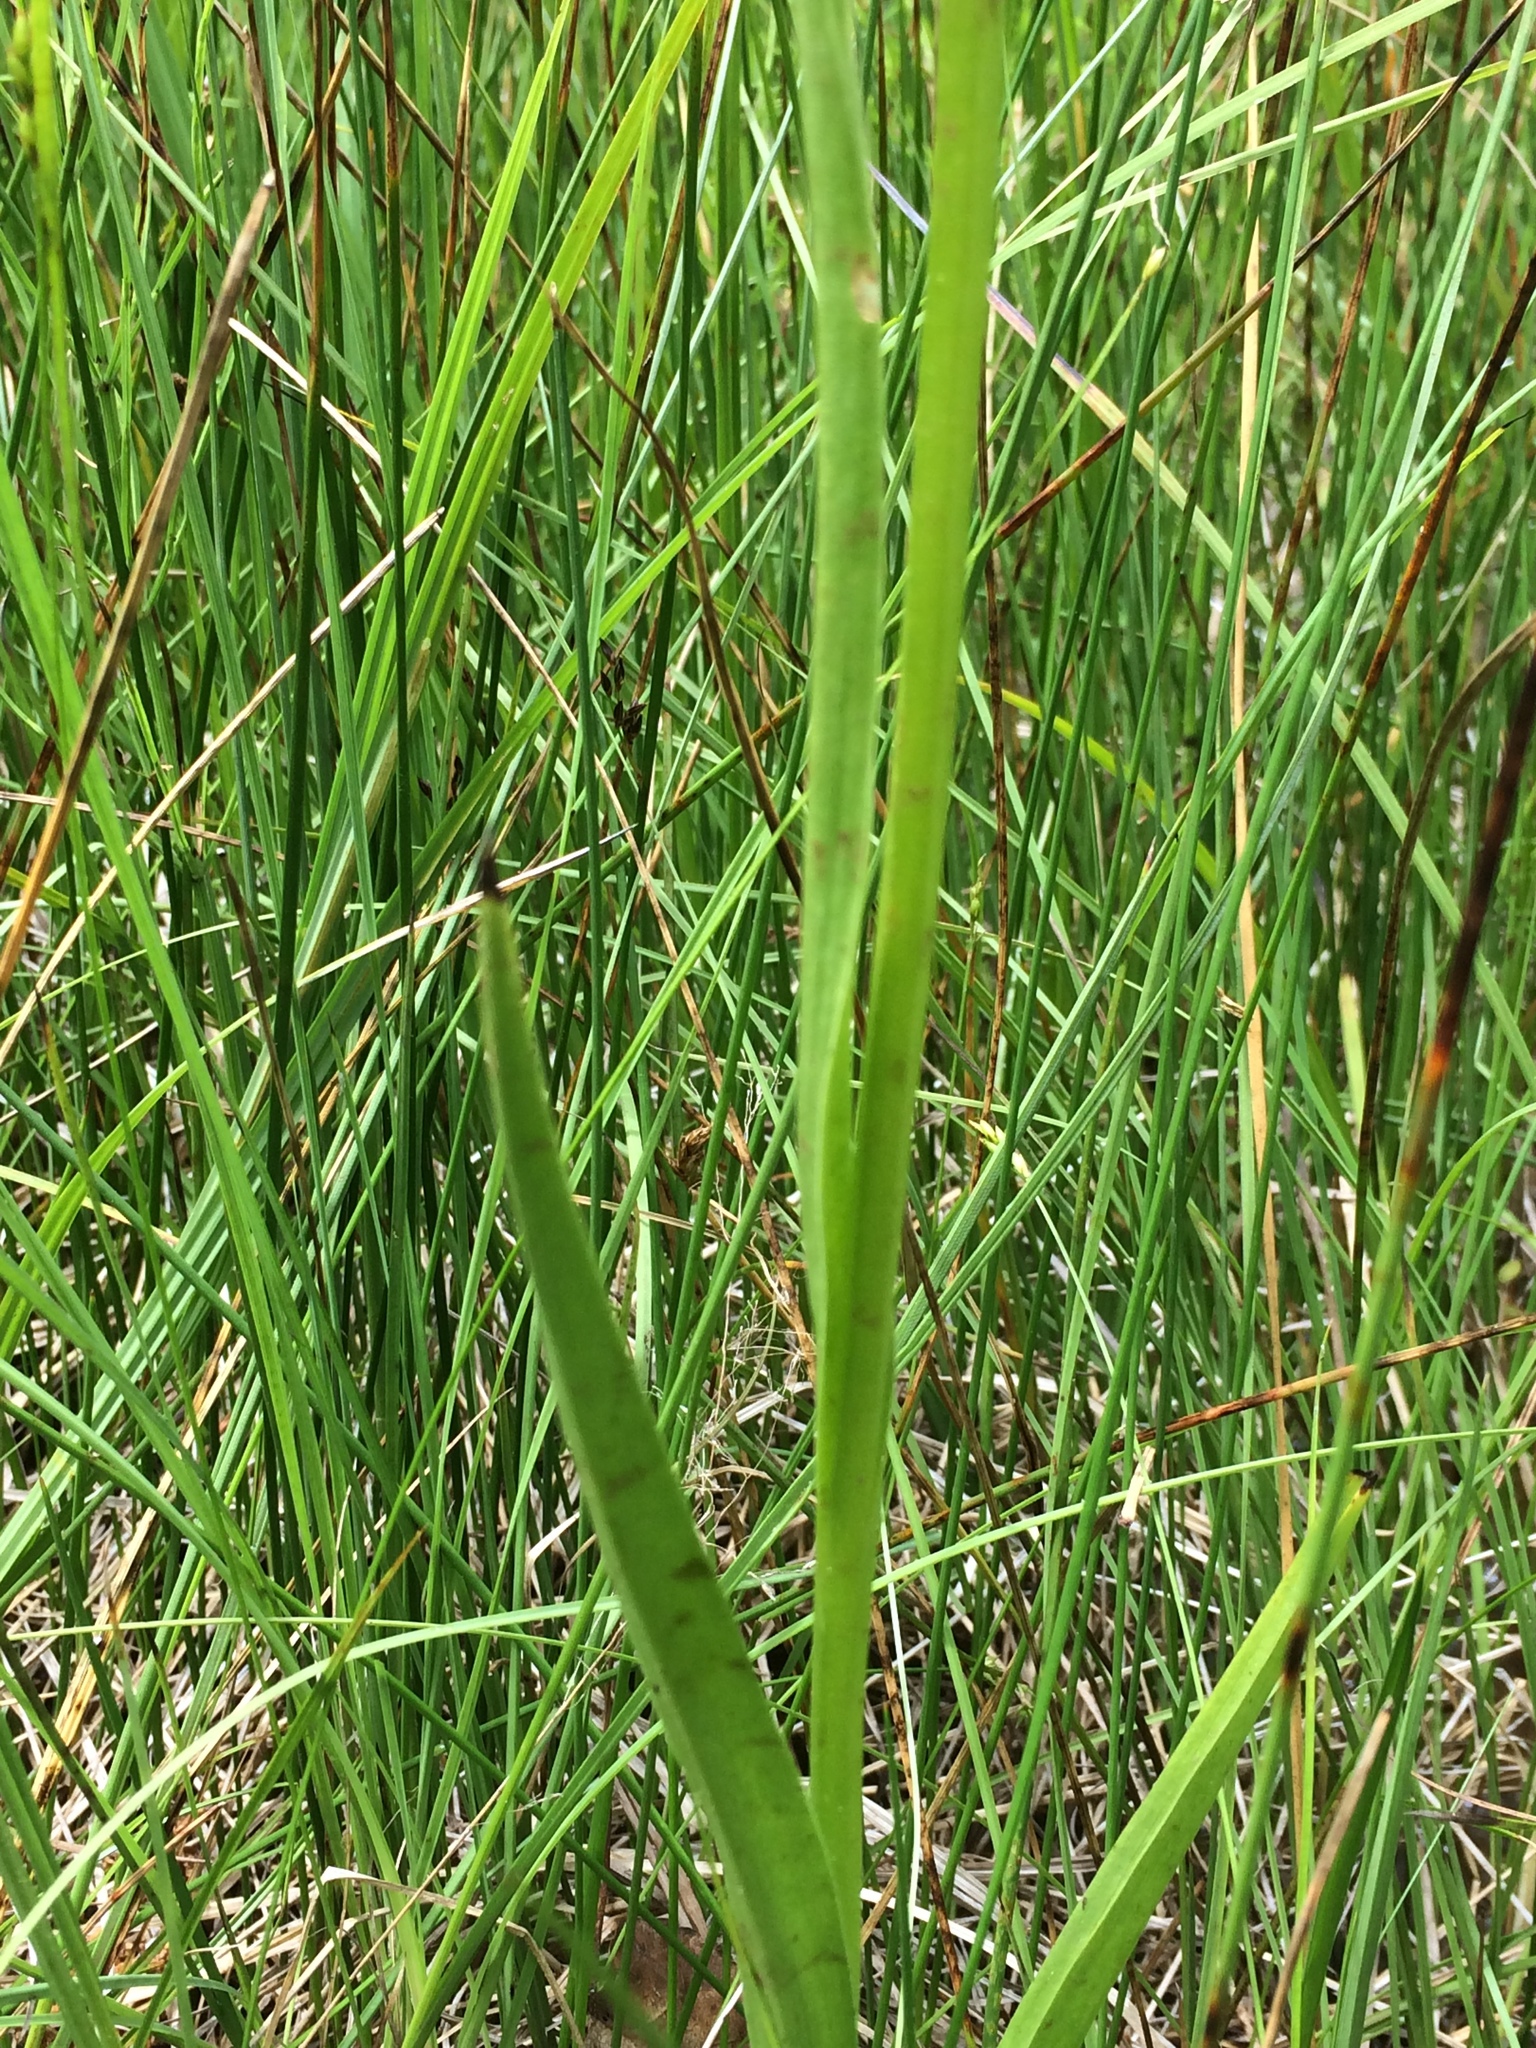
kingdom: Plantae
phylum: Tracheophyta
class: Liliopsida
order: Asparagales
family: Orchidaceae
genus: Platanthera
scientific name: Platanthera dilatata
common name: Bog candles
